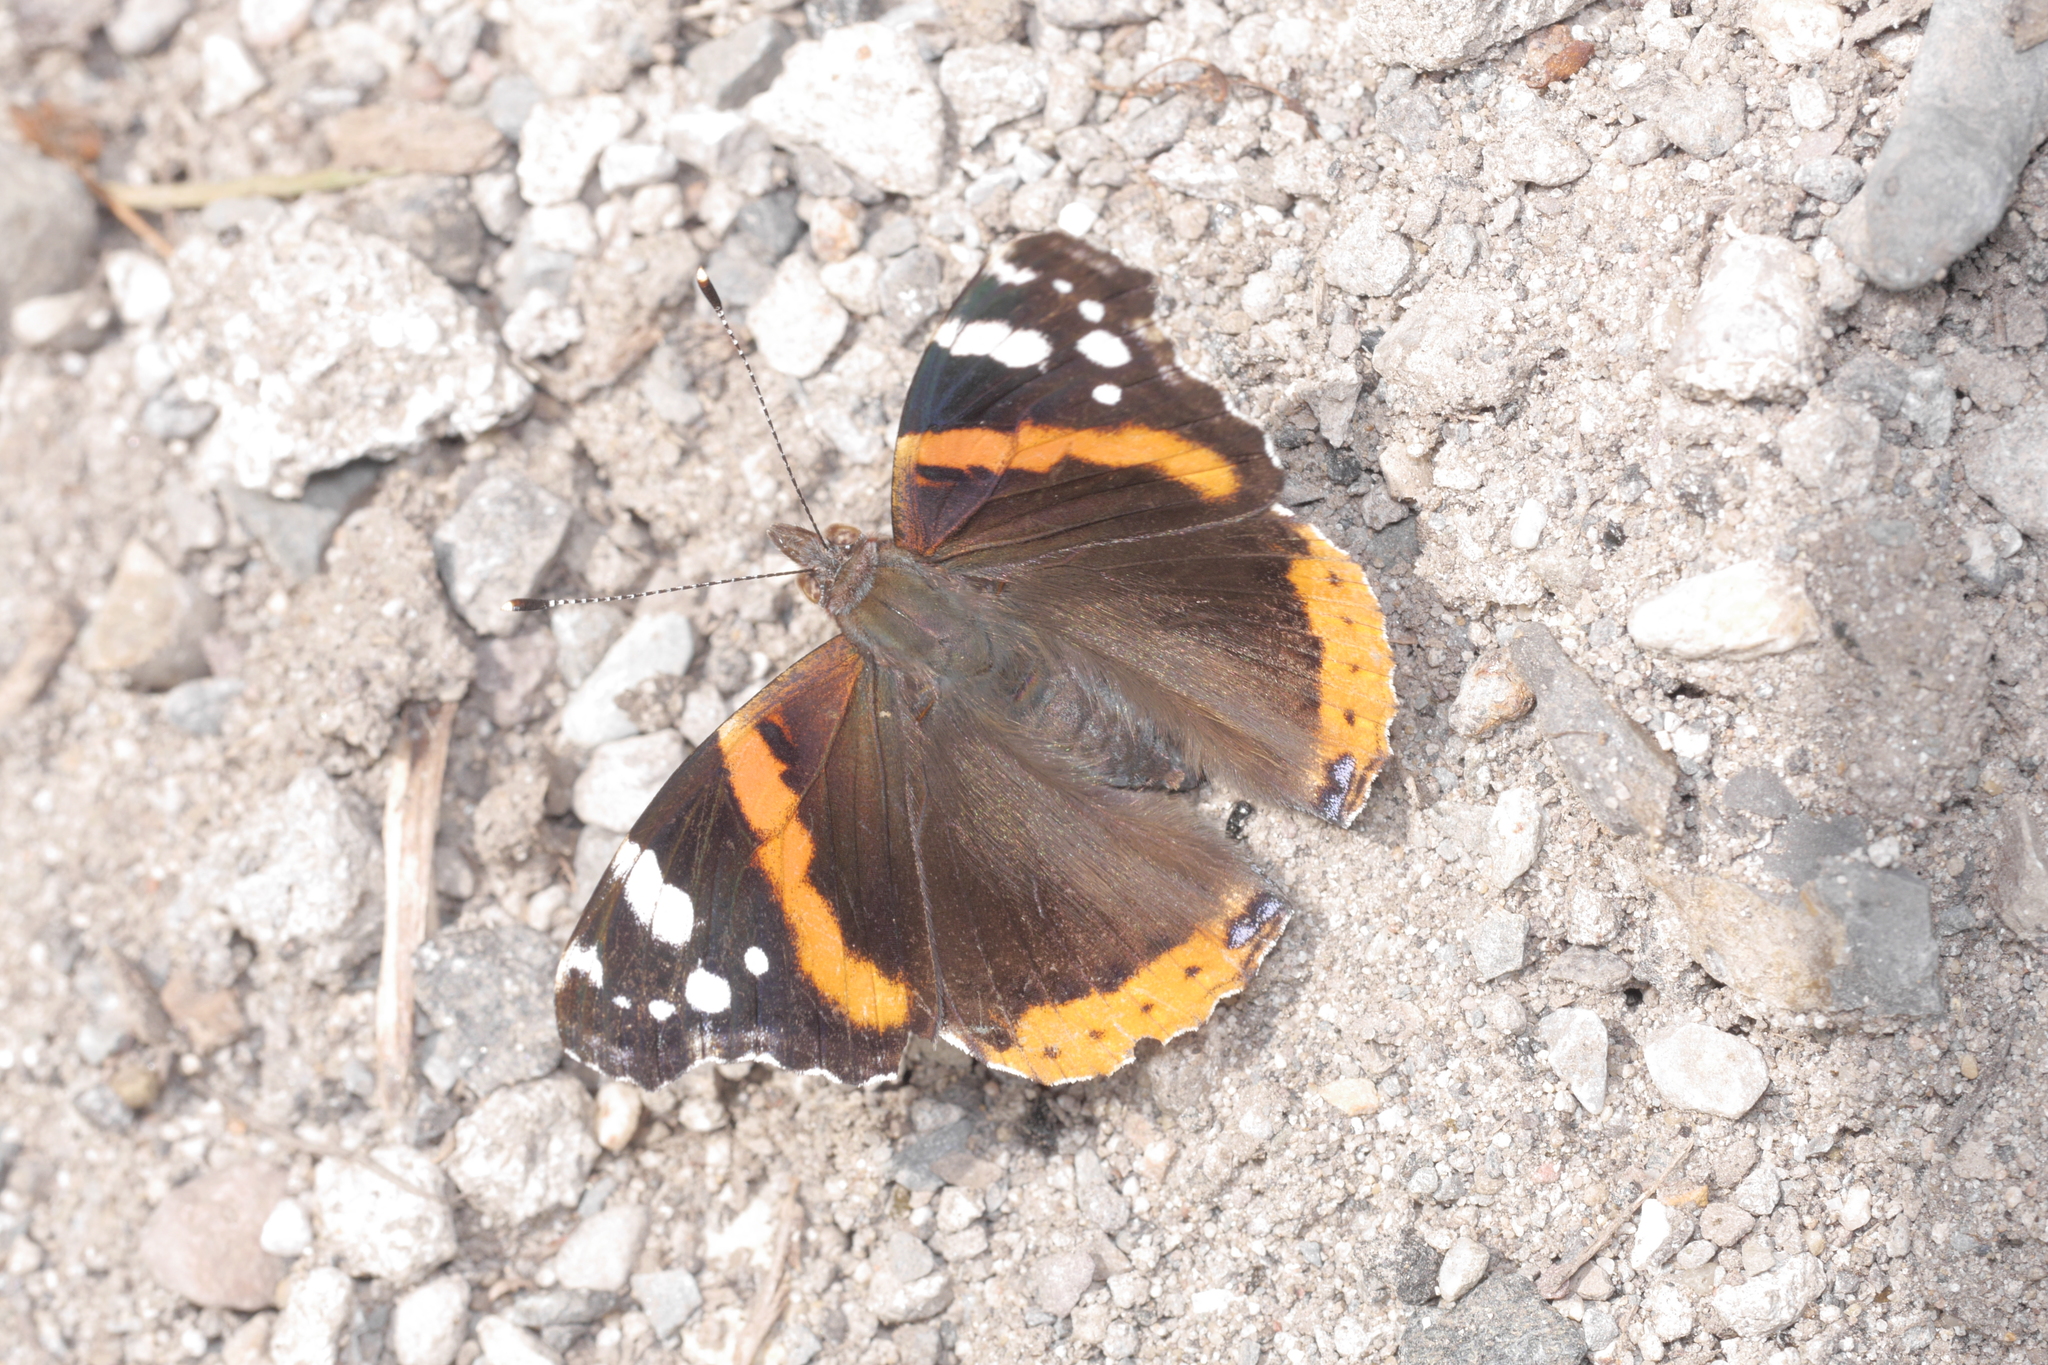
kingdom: Animalia
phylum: Arthropoda
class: Insecta
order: Lepidoptera
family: Nymphalidae
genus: Vanessa
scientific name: Vanessa atalanta
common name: Red admiral
